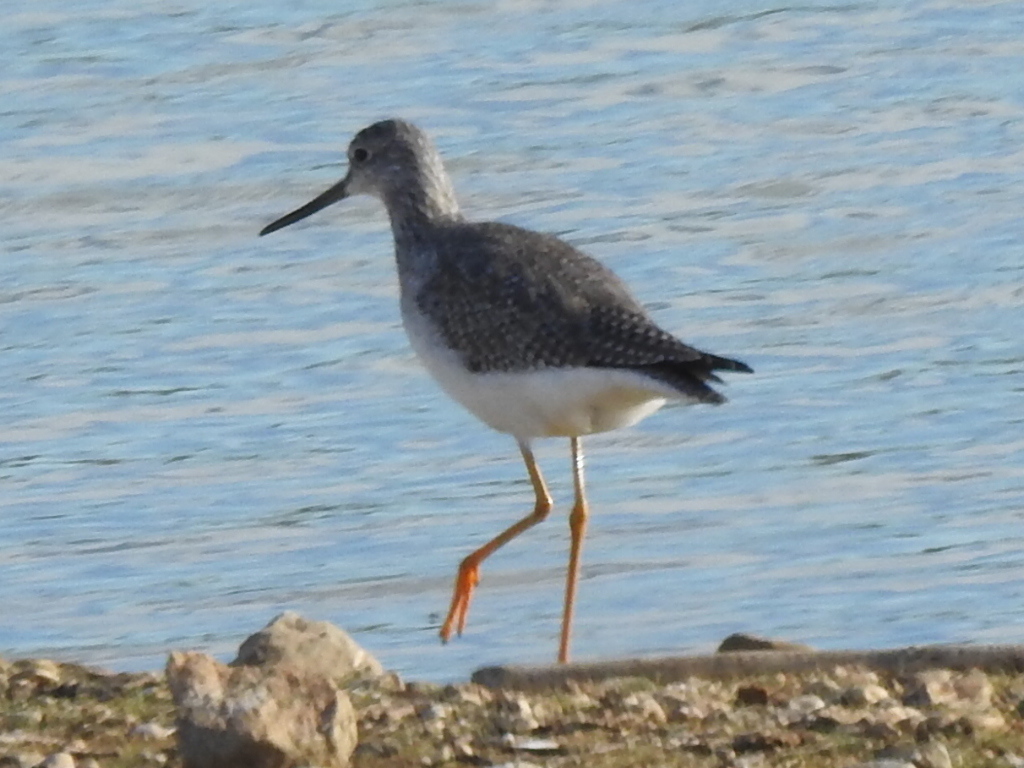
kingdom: Animalia
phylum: Chordata
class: Aves
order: Charadriiformes
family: Scolopacidae
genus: Tringa
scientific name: Tringa melanoleuca
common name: Greater yellowlegs
